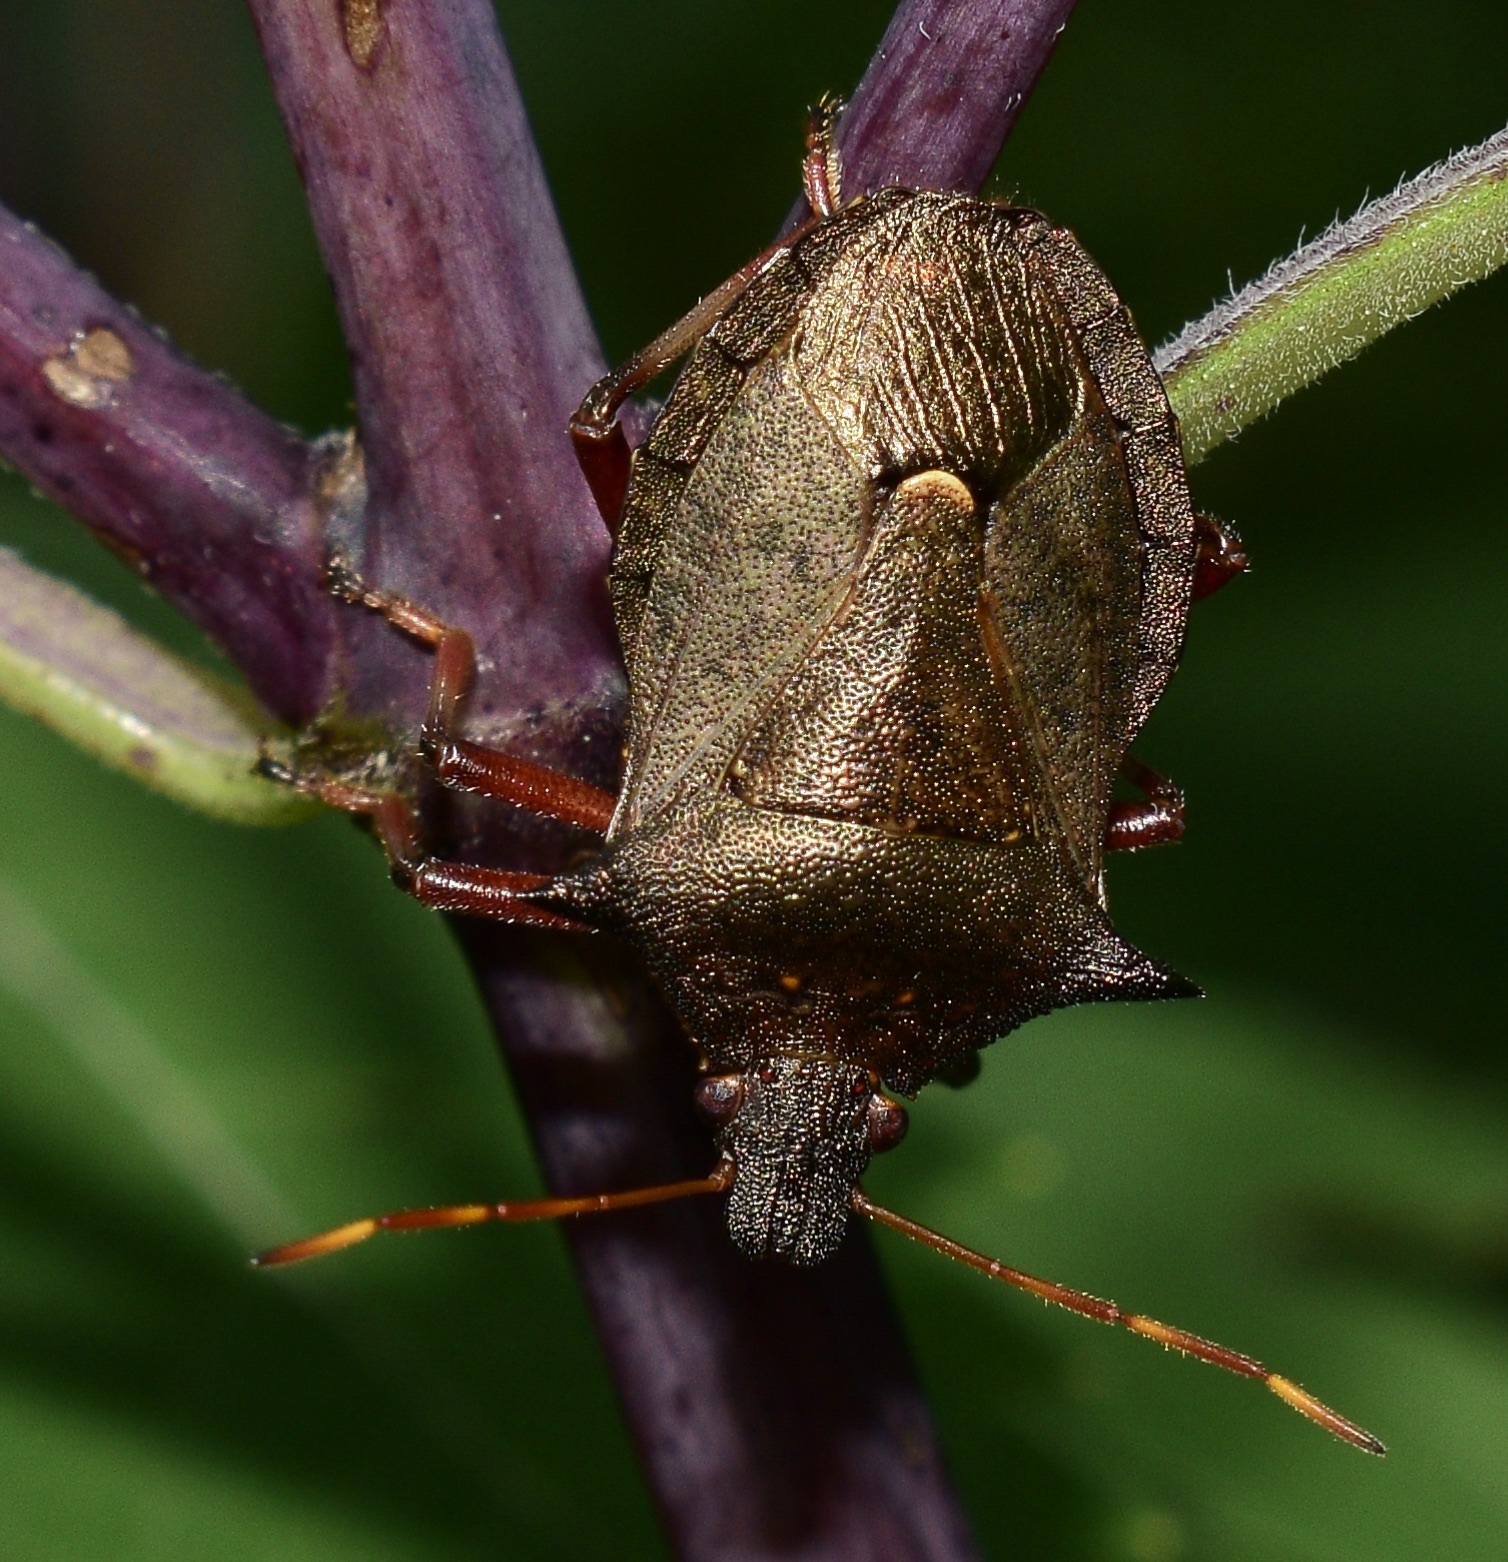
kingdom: Animalia
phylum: Arthropoda
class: Insecta
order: Hemiptera
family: Pentatomidae
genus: Picromerus
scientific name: Picromerus bidens
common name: Spiked shieldbug
